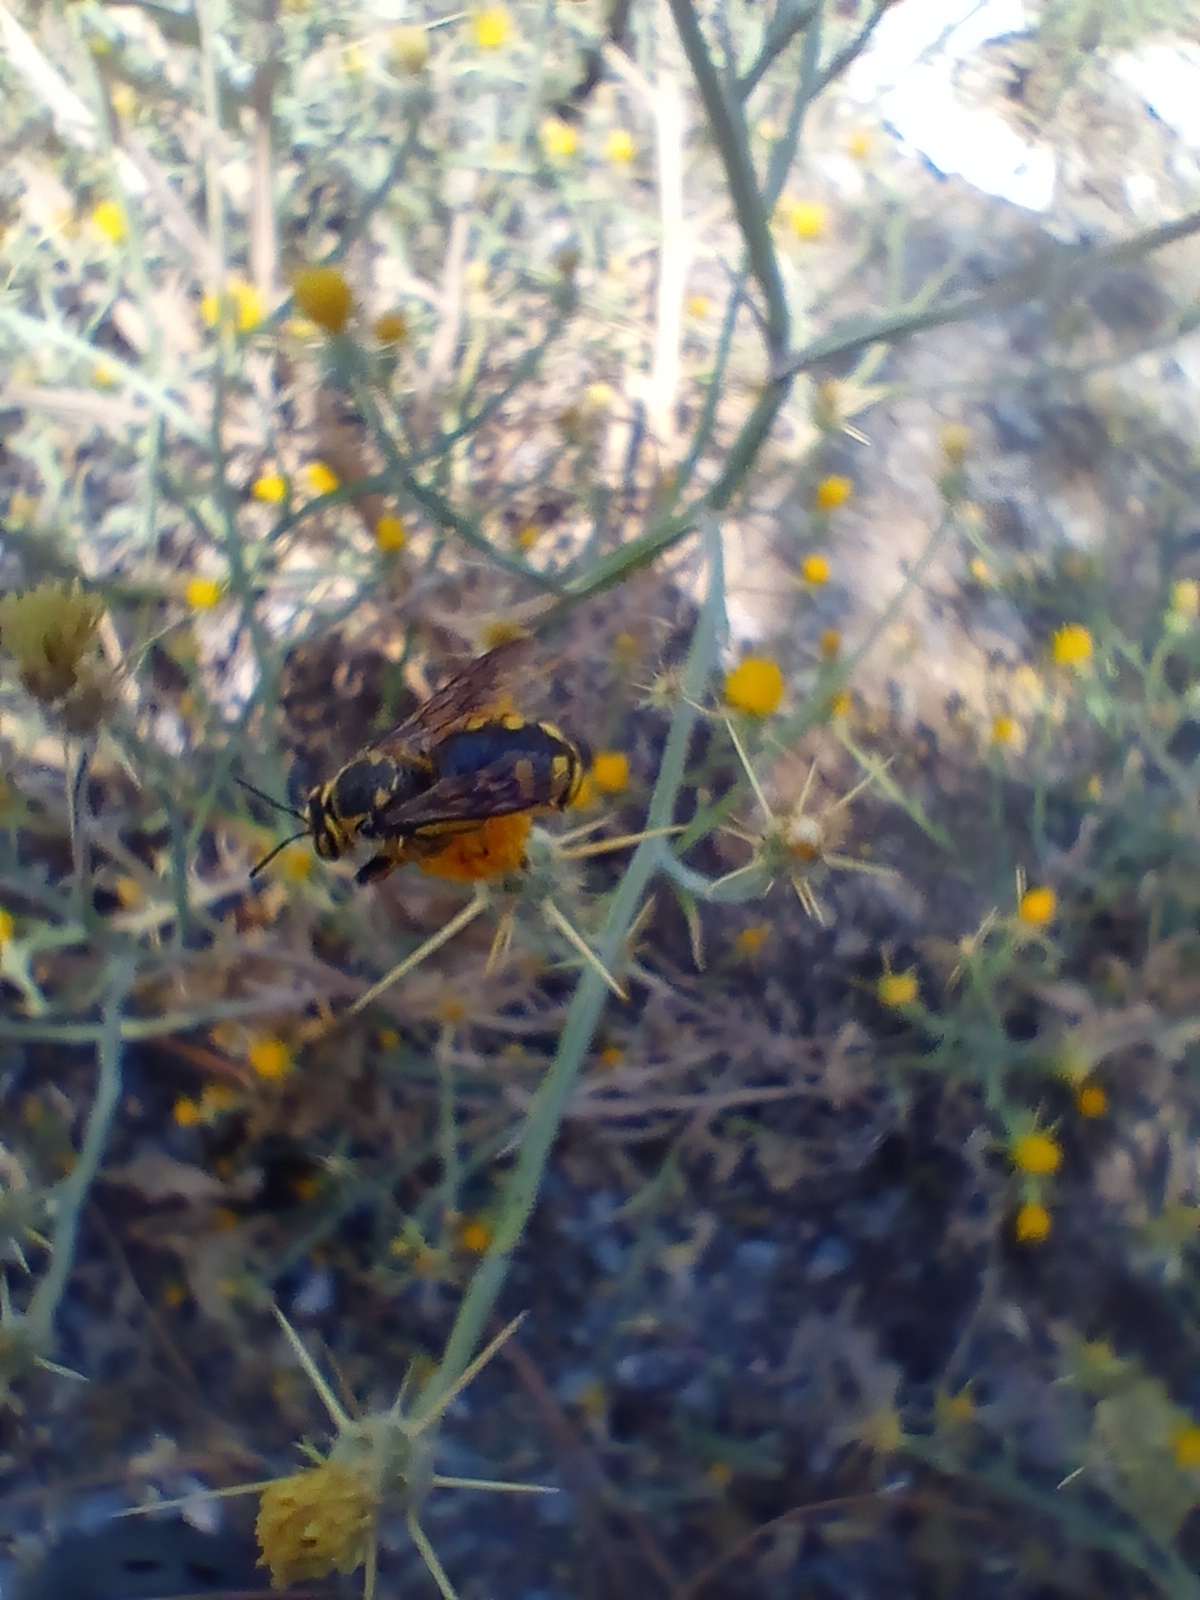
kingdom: Animalia
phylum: Arthropoda
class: Insecta
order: Hymenoptera
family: Megachilidae
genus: Anthidium
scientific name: Anthidium florentinum
